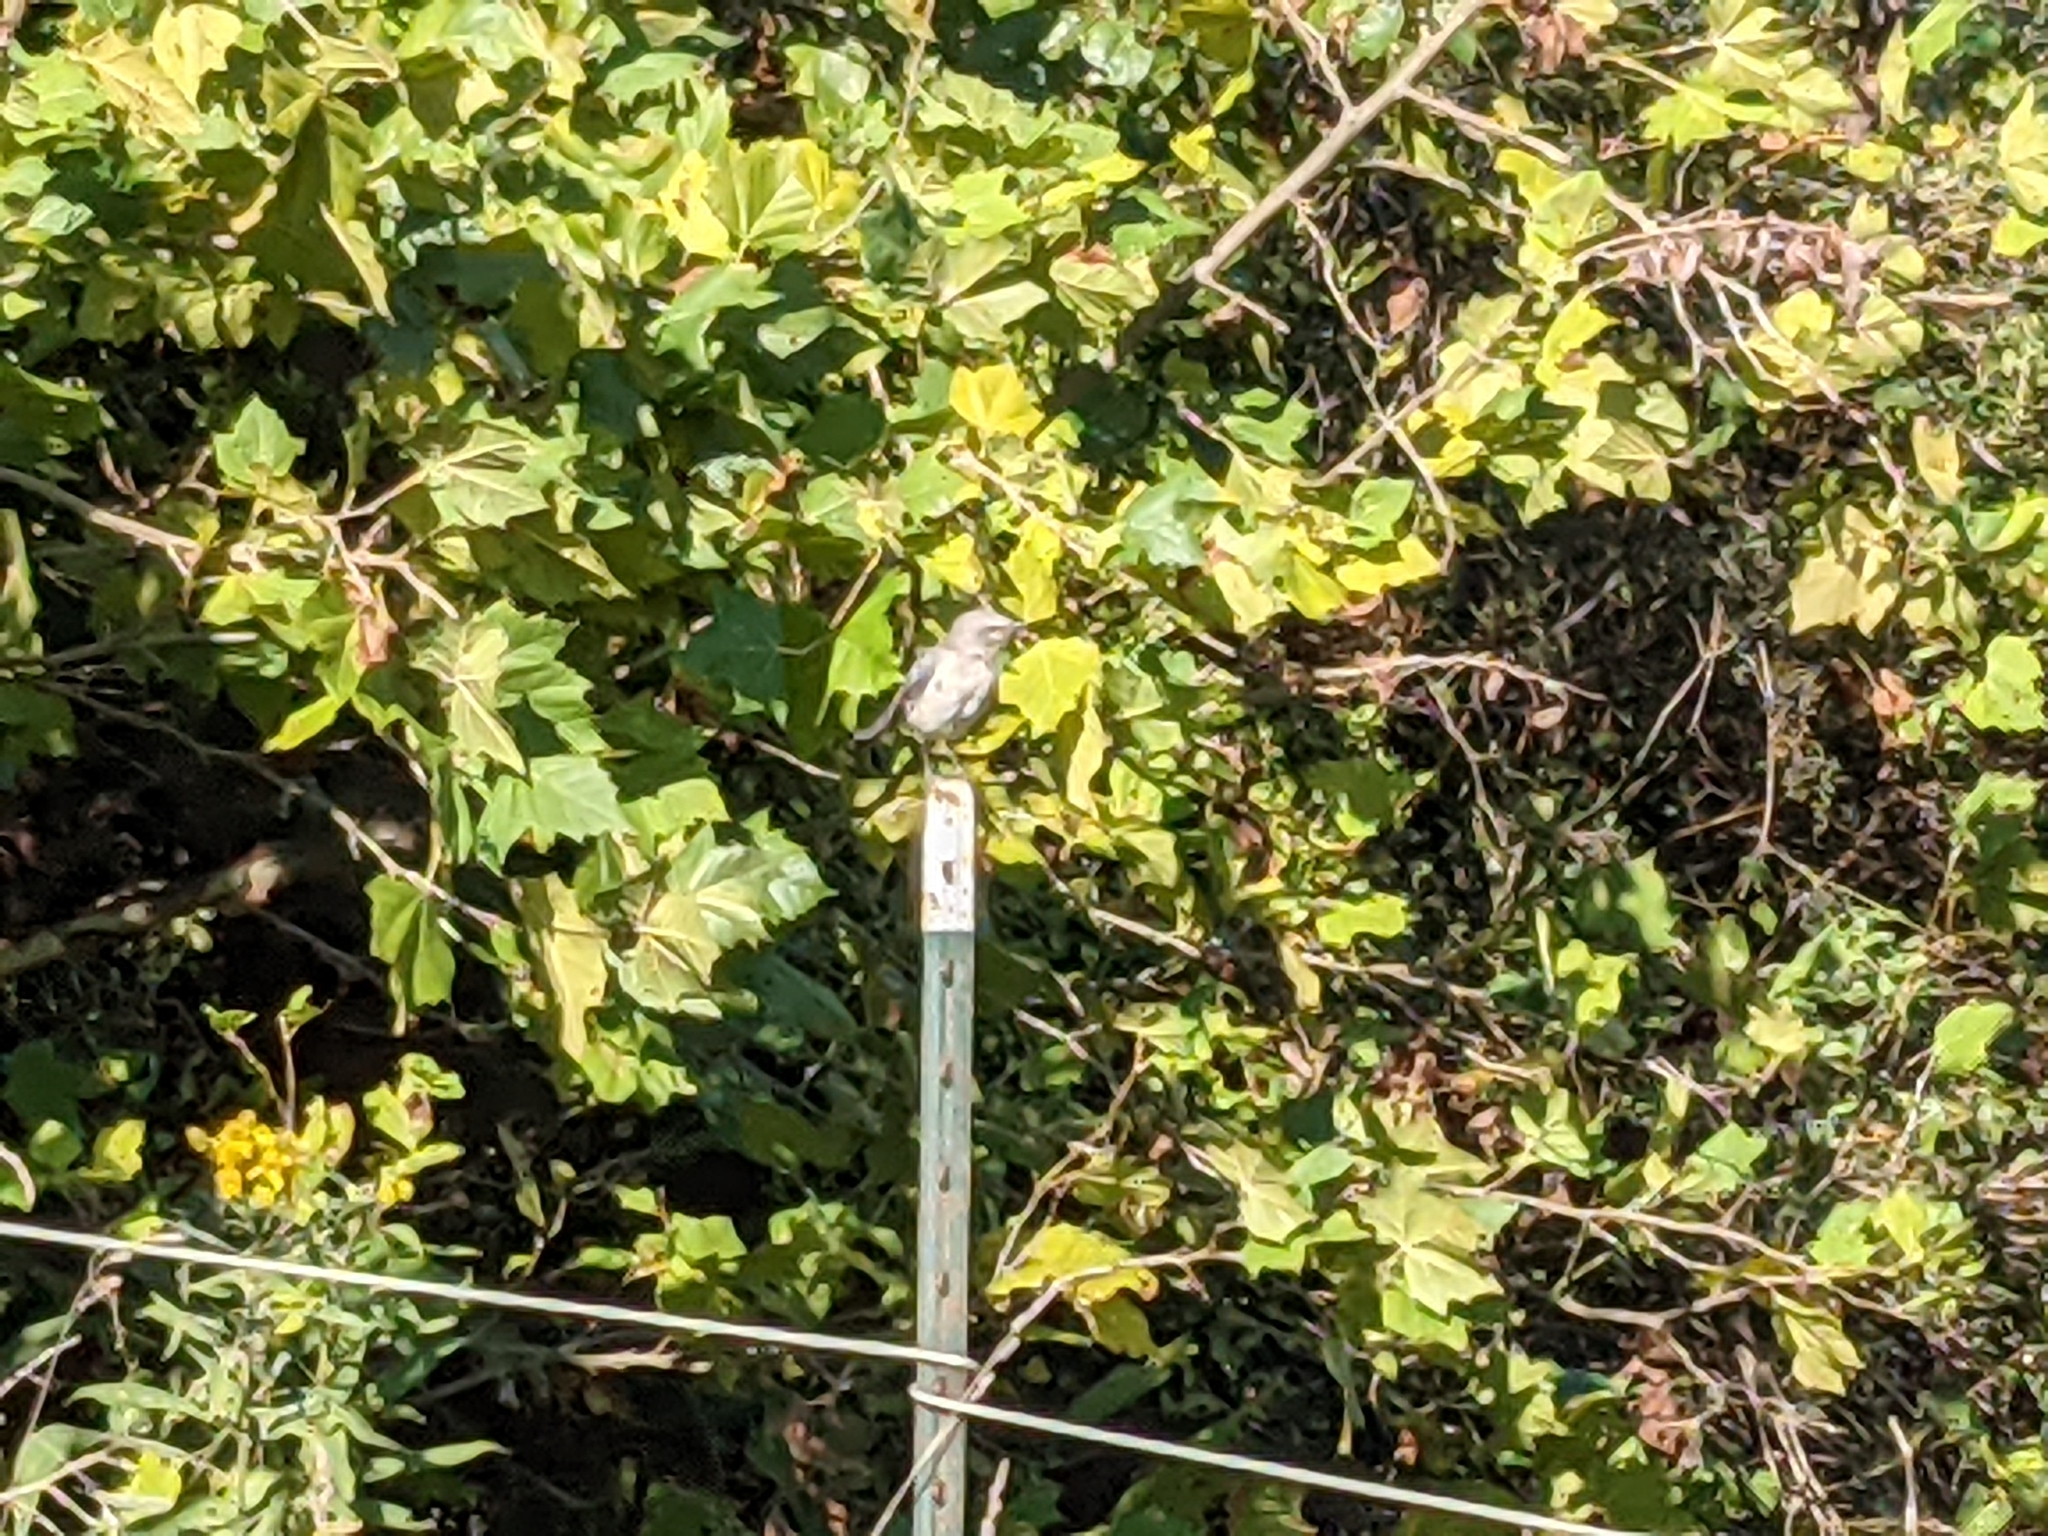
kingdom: Animalia
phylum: Chordata
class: Aves
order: Passeriformes
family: Mimidae
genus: Mimus
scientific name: Mimus polyglottos
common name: Northern mockingbird
